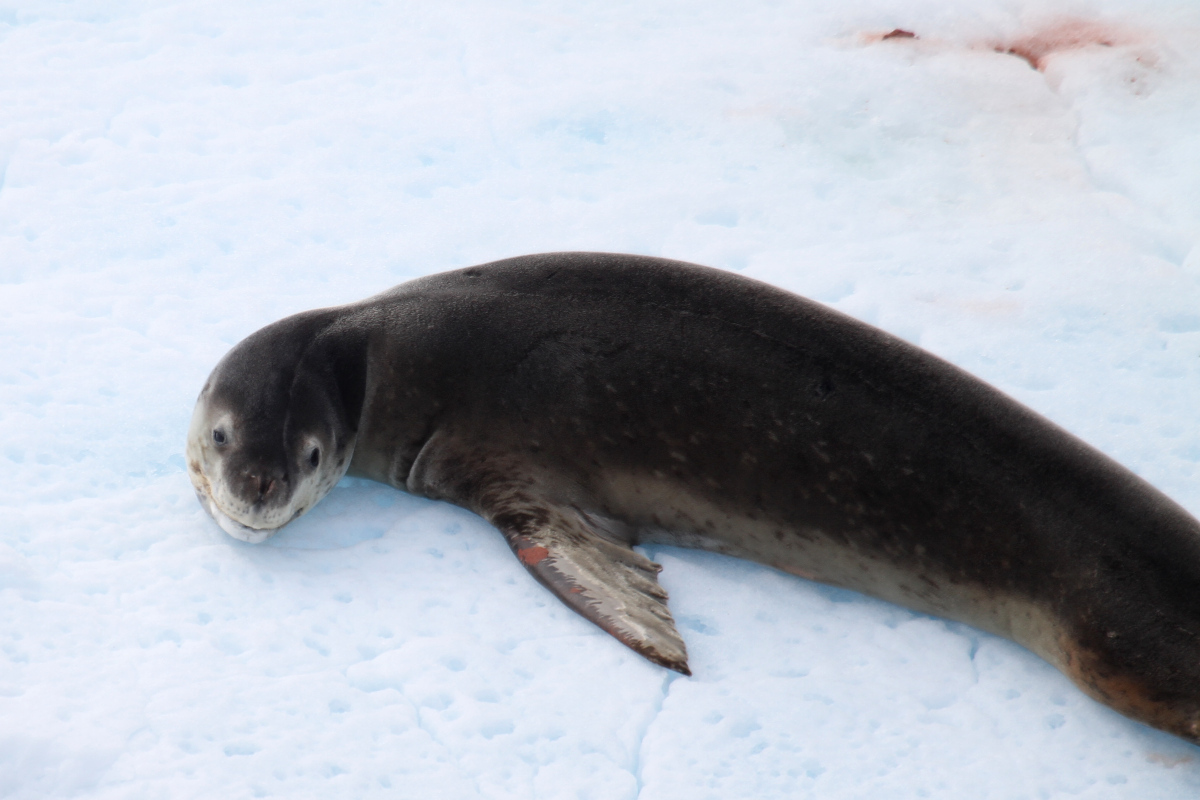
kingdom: Animalia
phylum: Chordata
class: Mammalia
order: Carnivora
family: Phocidae
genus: Hydrurga
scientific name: Hydrurga leptonyx
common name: Leopard seal
